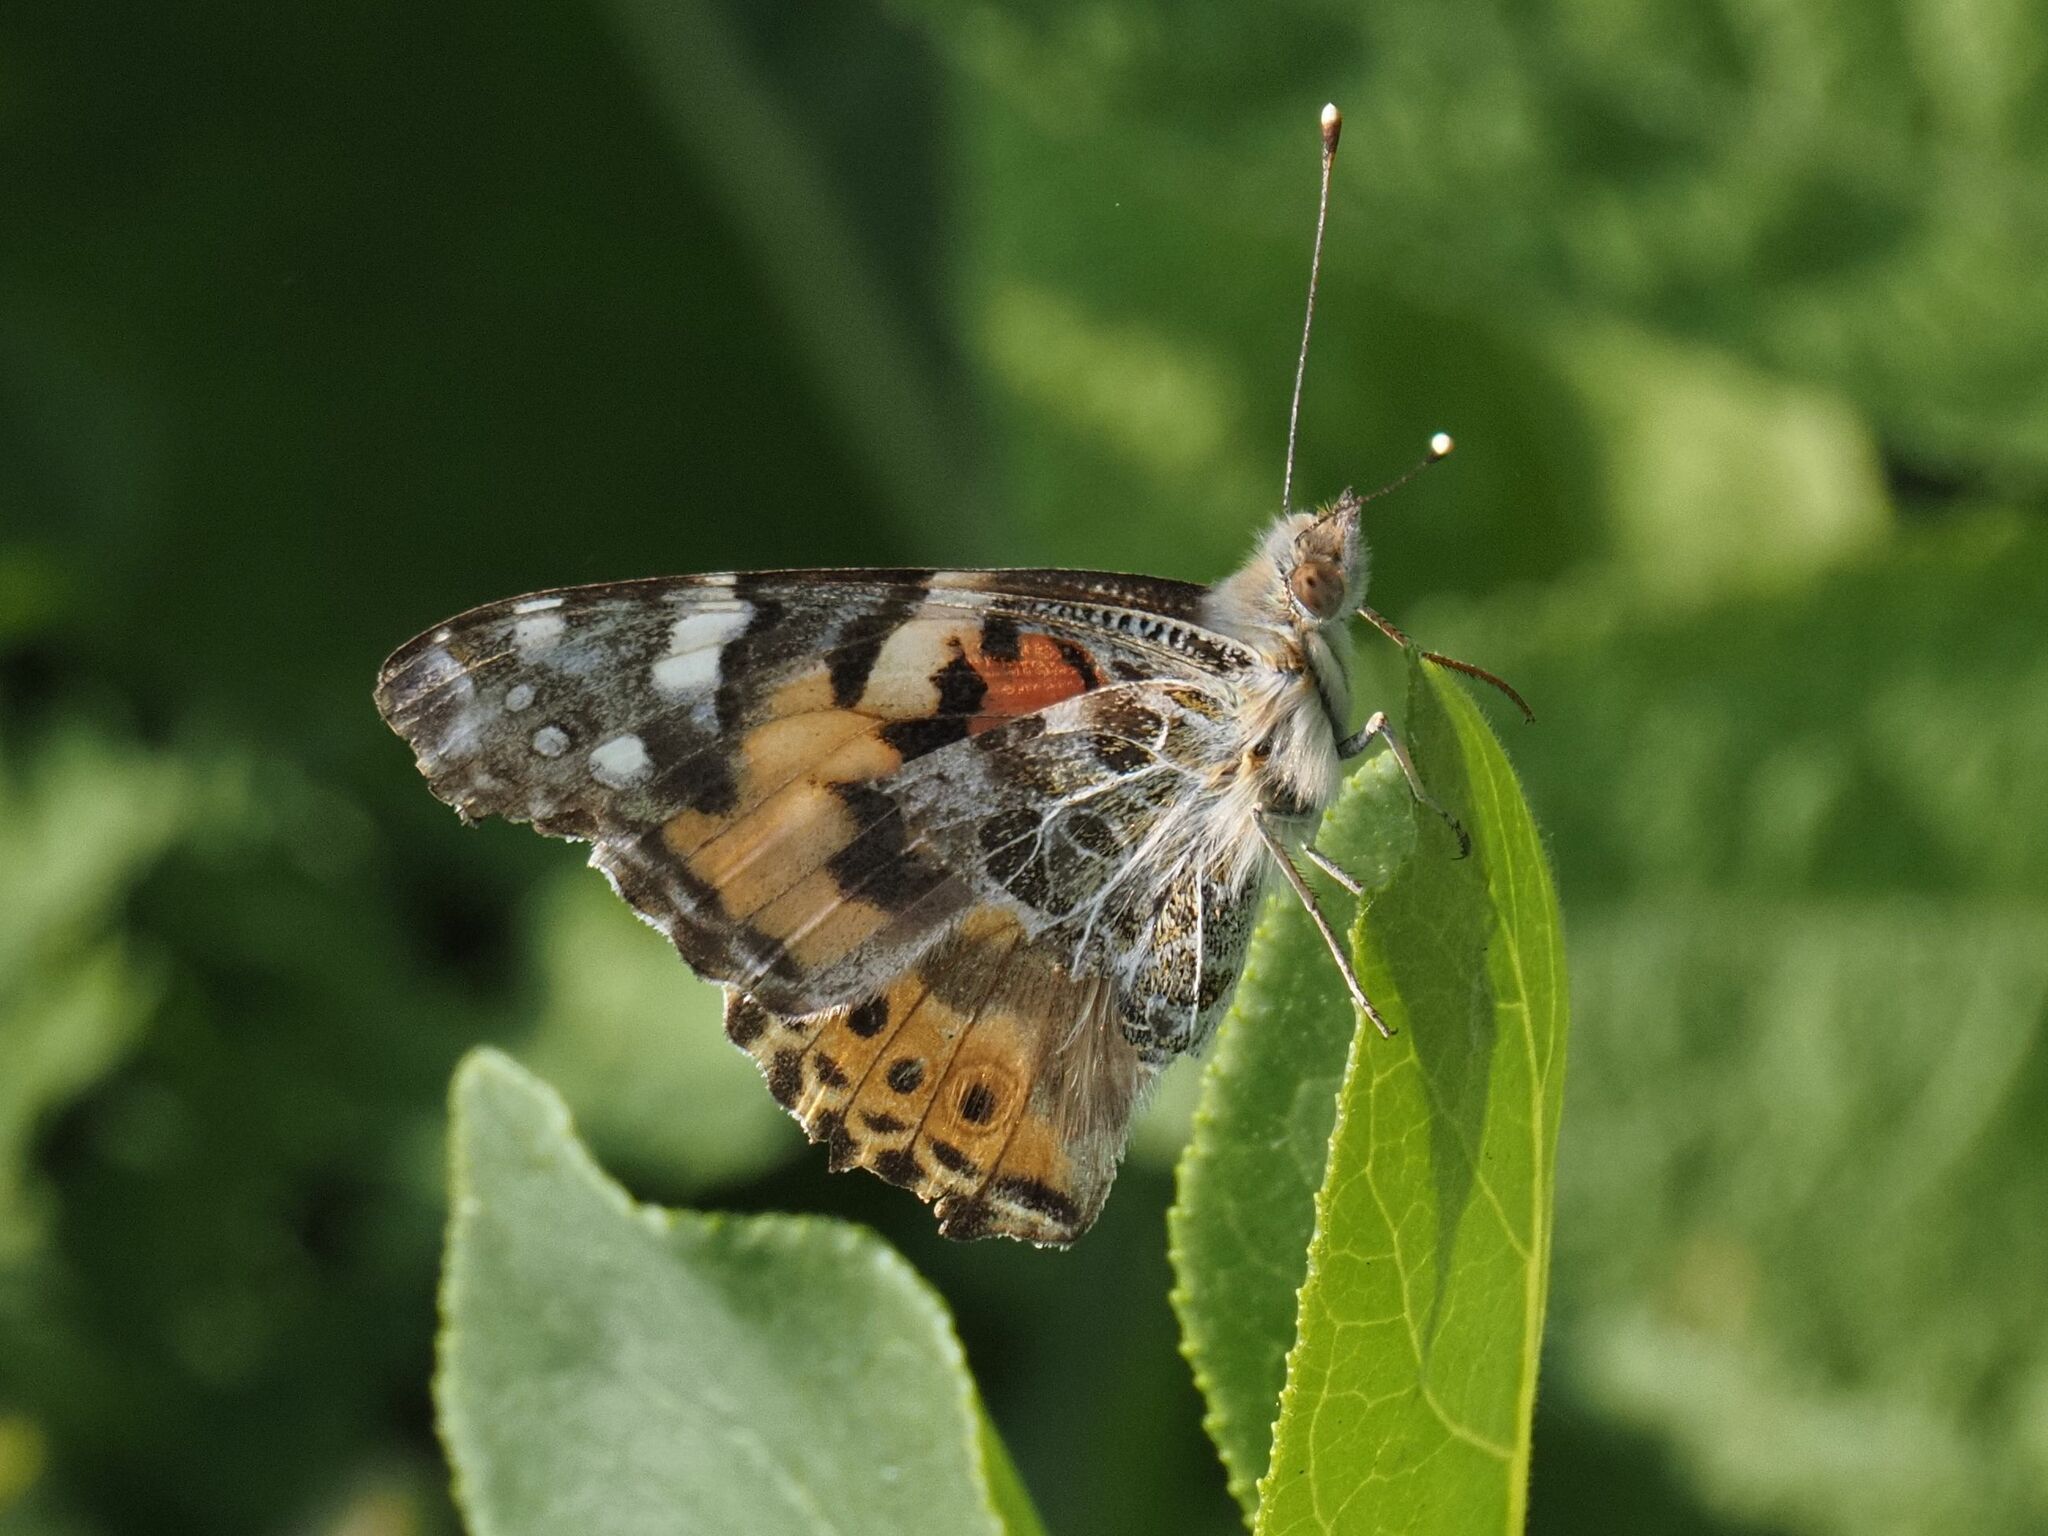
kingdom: Animalia
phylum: Arthropoda
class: Insecta
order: Lepidoptera
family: Nymphalidae
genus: Vanessa
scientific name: Vanessa cardui
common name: Painted lady
